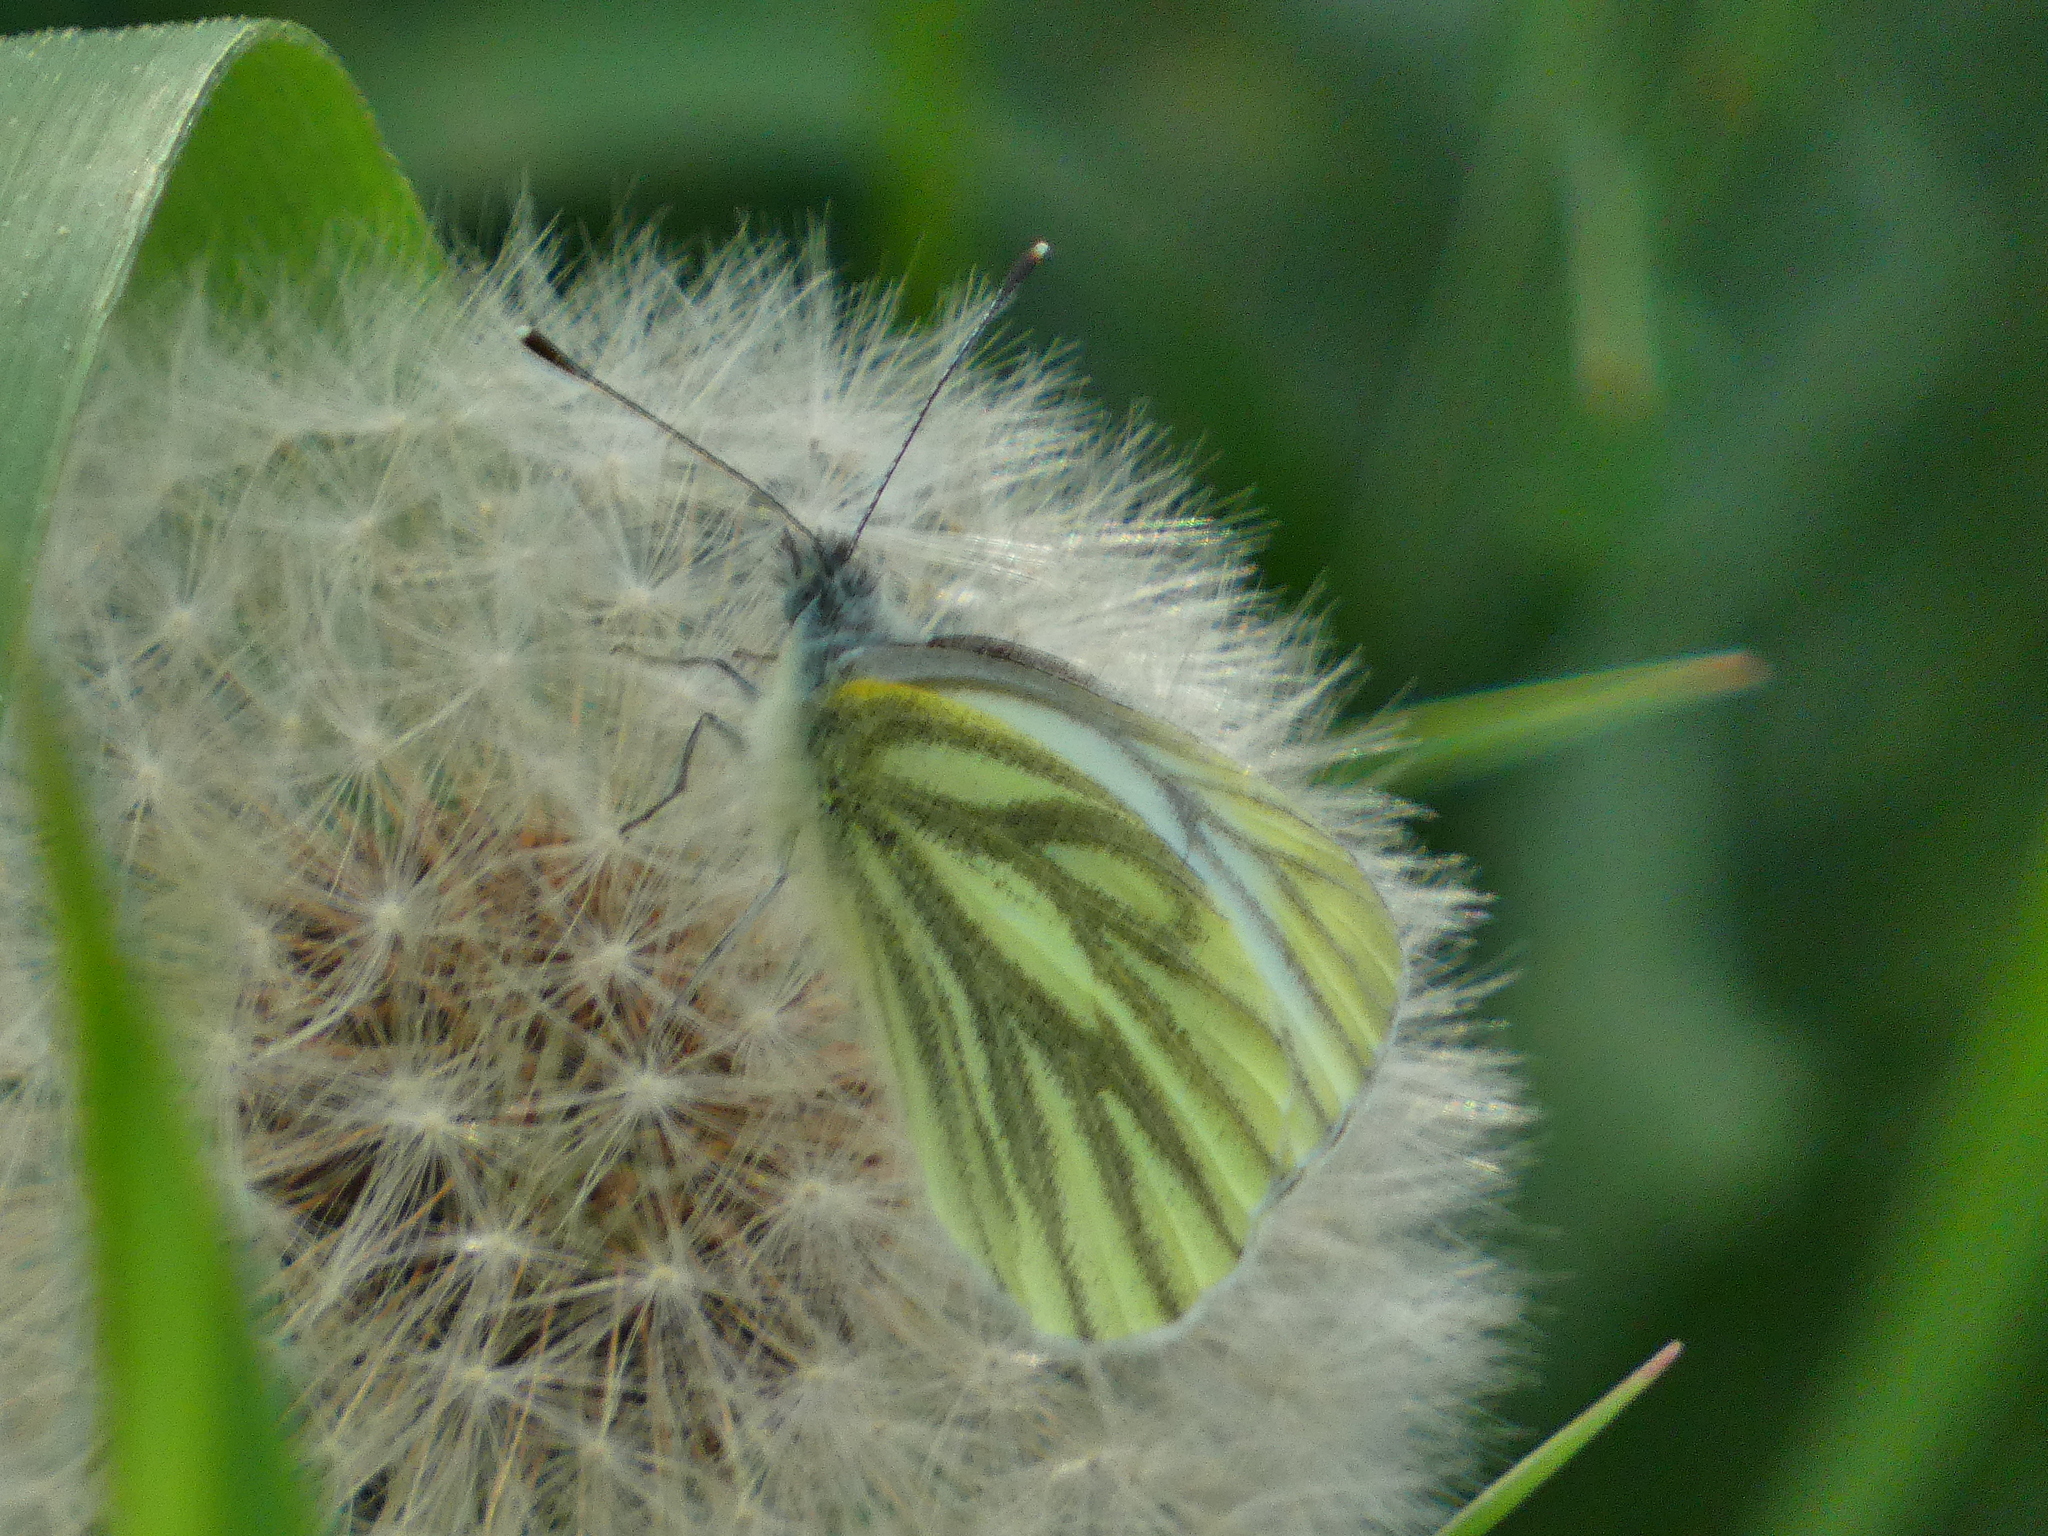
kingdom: Animalia
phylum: Arthropoda
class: Insecta
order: Lepidoptera
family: Pieridae
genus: Pieris
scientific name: Pieris napi
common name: Green-veined white
